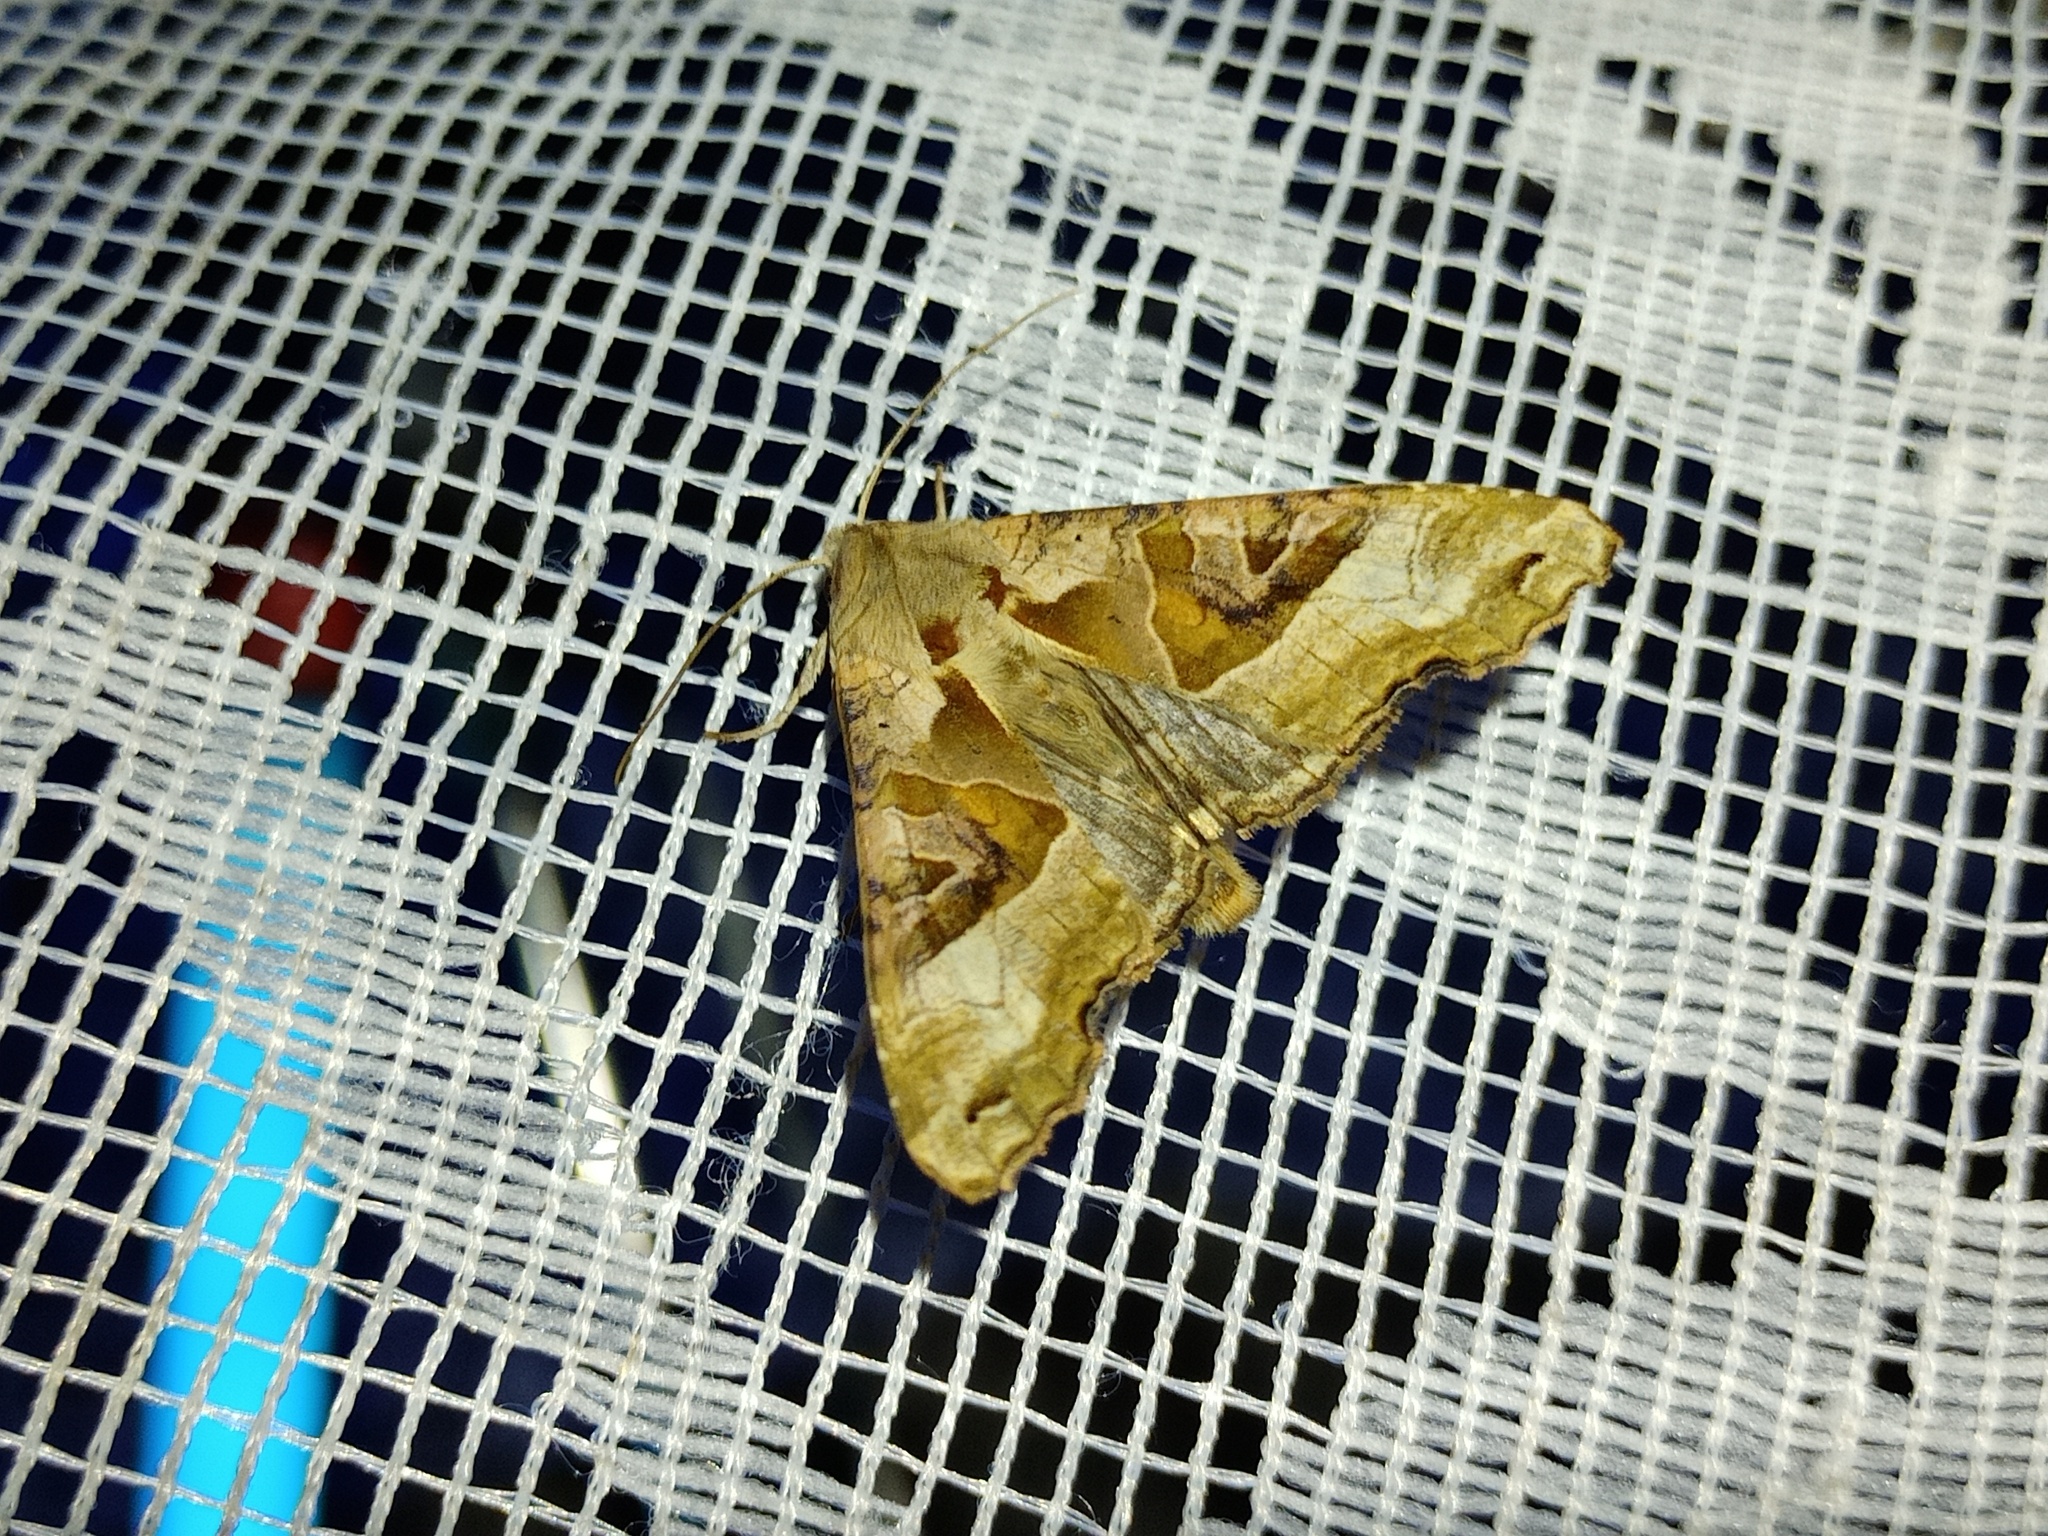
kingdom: Animalia
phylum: Arthropoda
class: Insecta
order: Lepidoptera
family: Noctuidae
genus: Phlogophora
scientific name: Phlogophora meticulosa
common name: Angle shades
